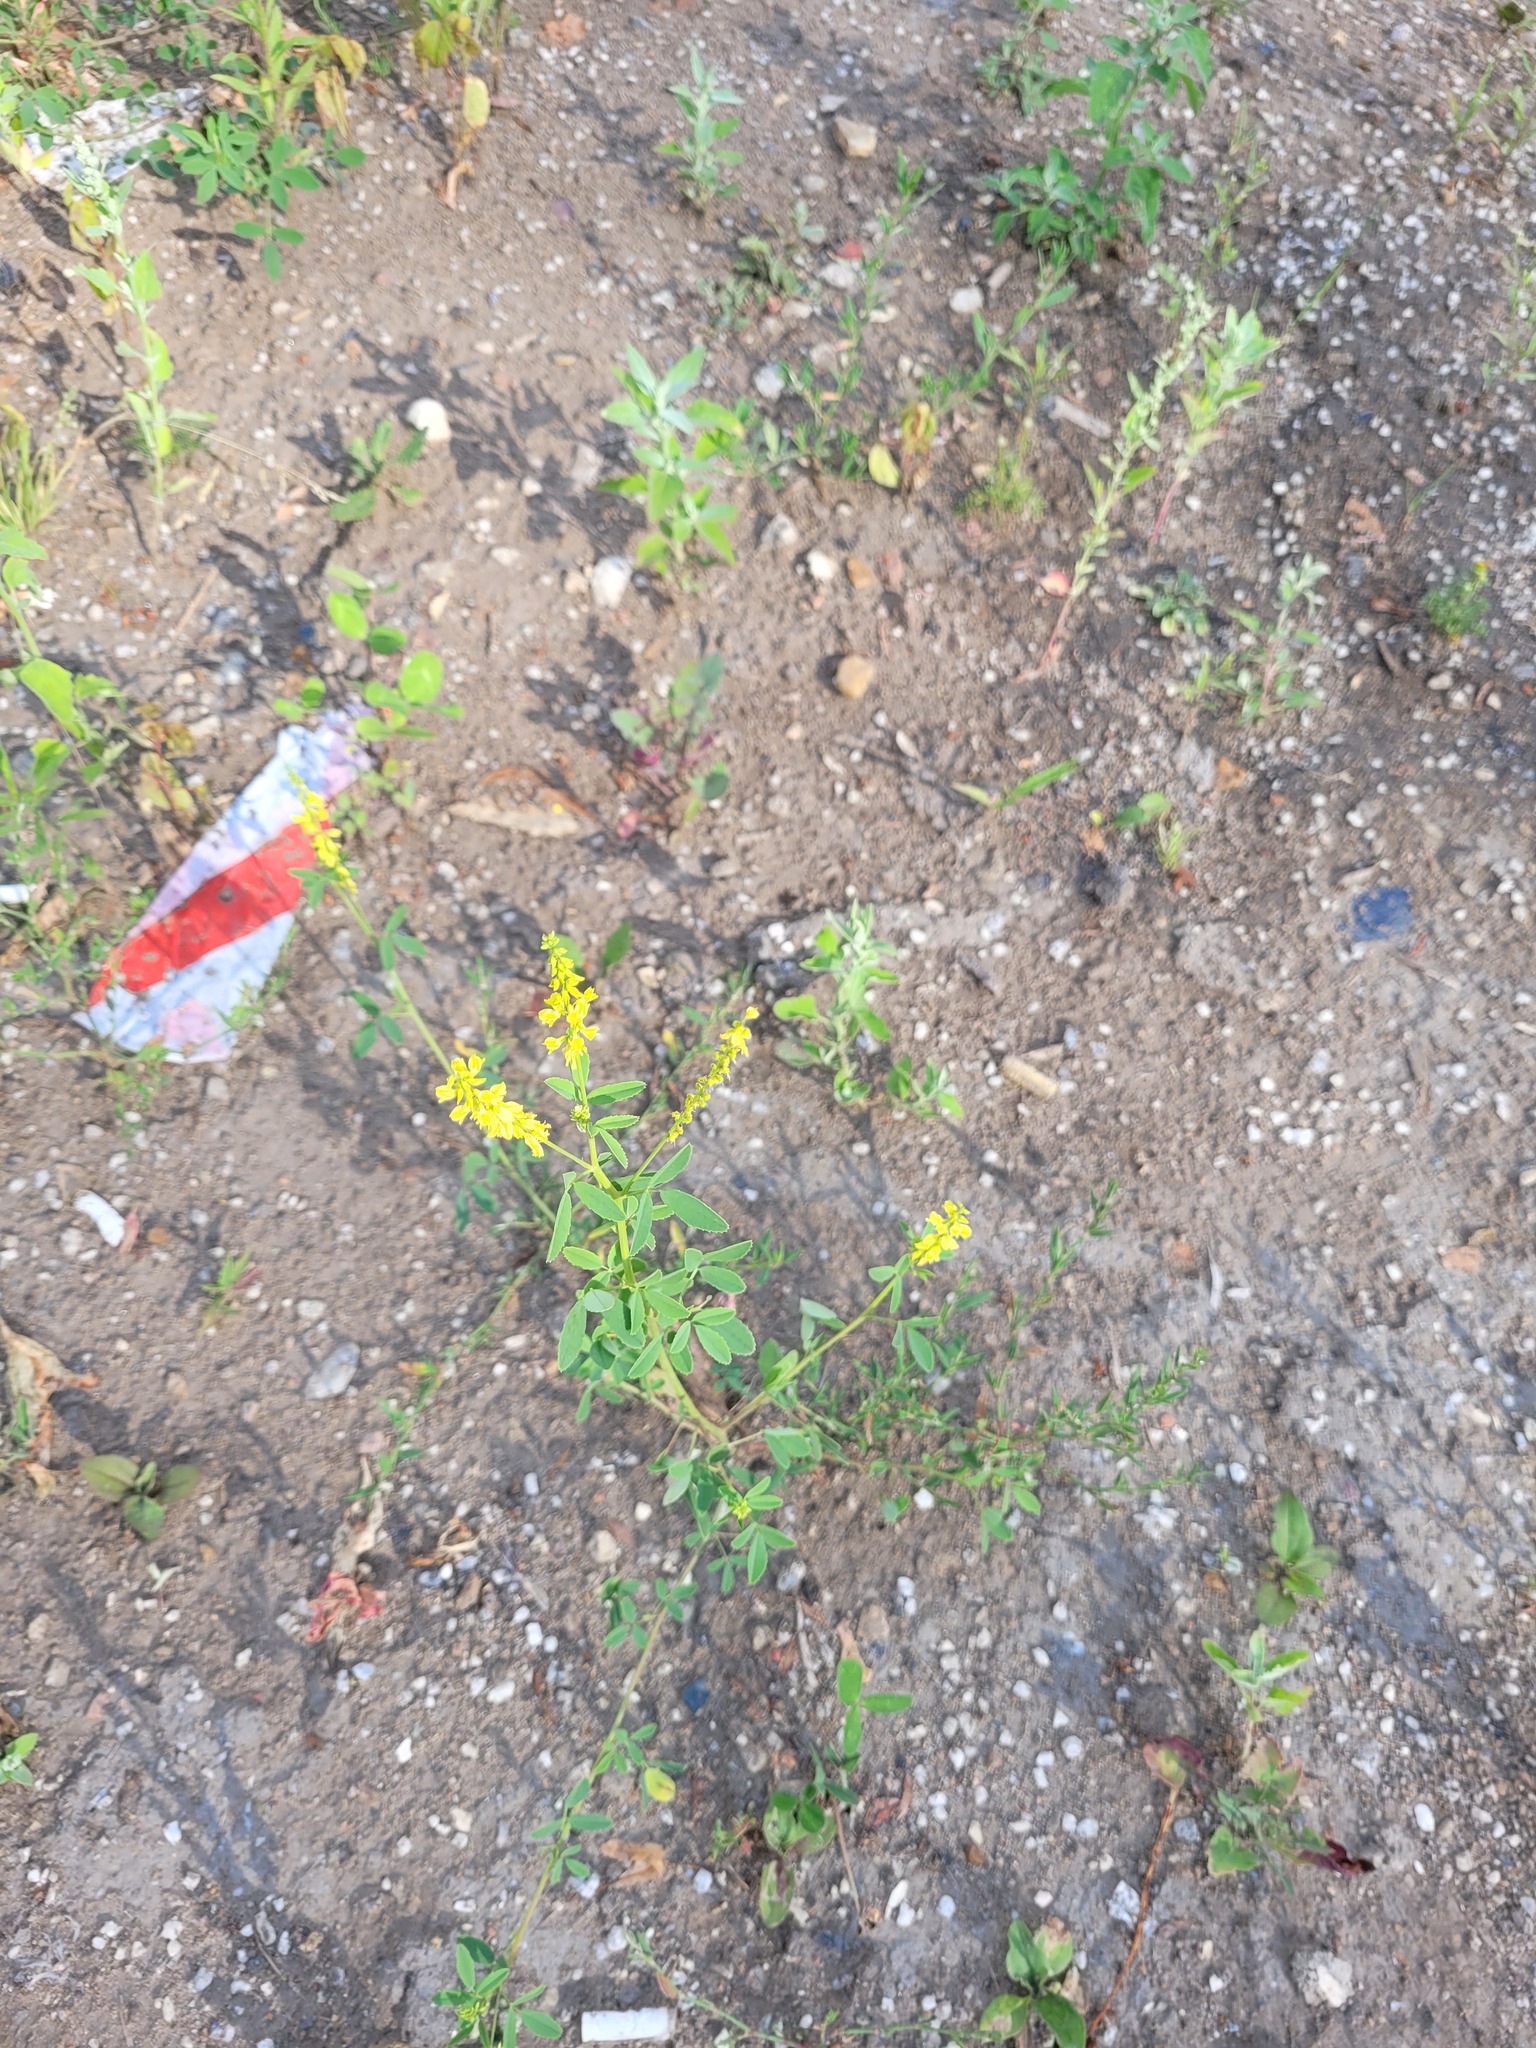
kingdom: Plantae
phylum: Tracheophyta
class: Magnoliopsida
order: Fabales
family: Fabaceae
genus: Melilotus
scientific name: Melilotus officinalis
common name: Sweetclover
